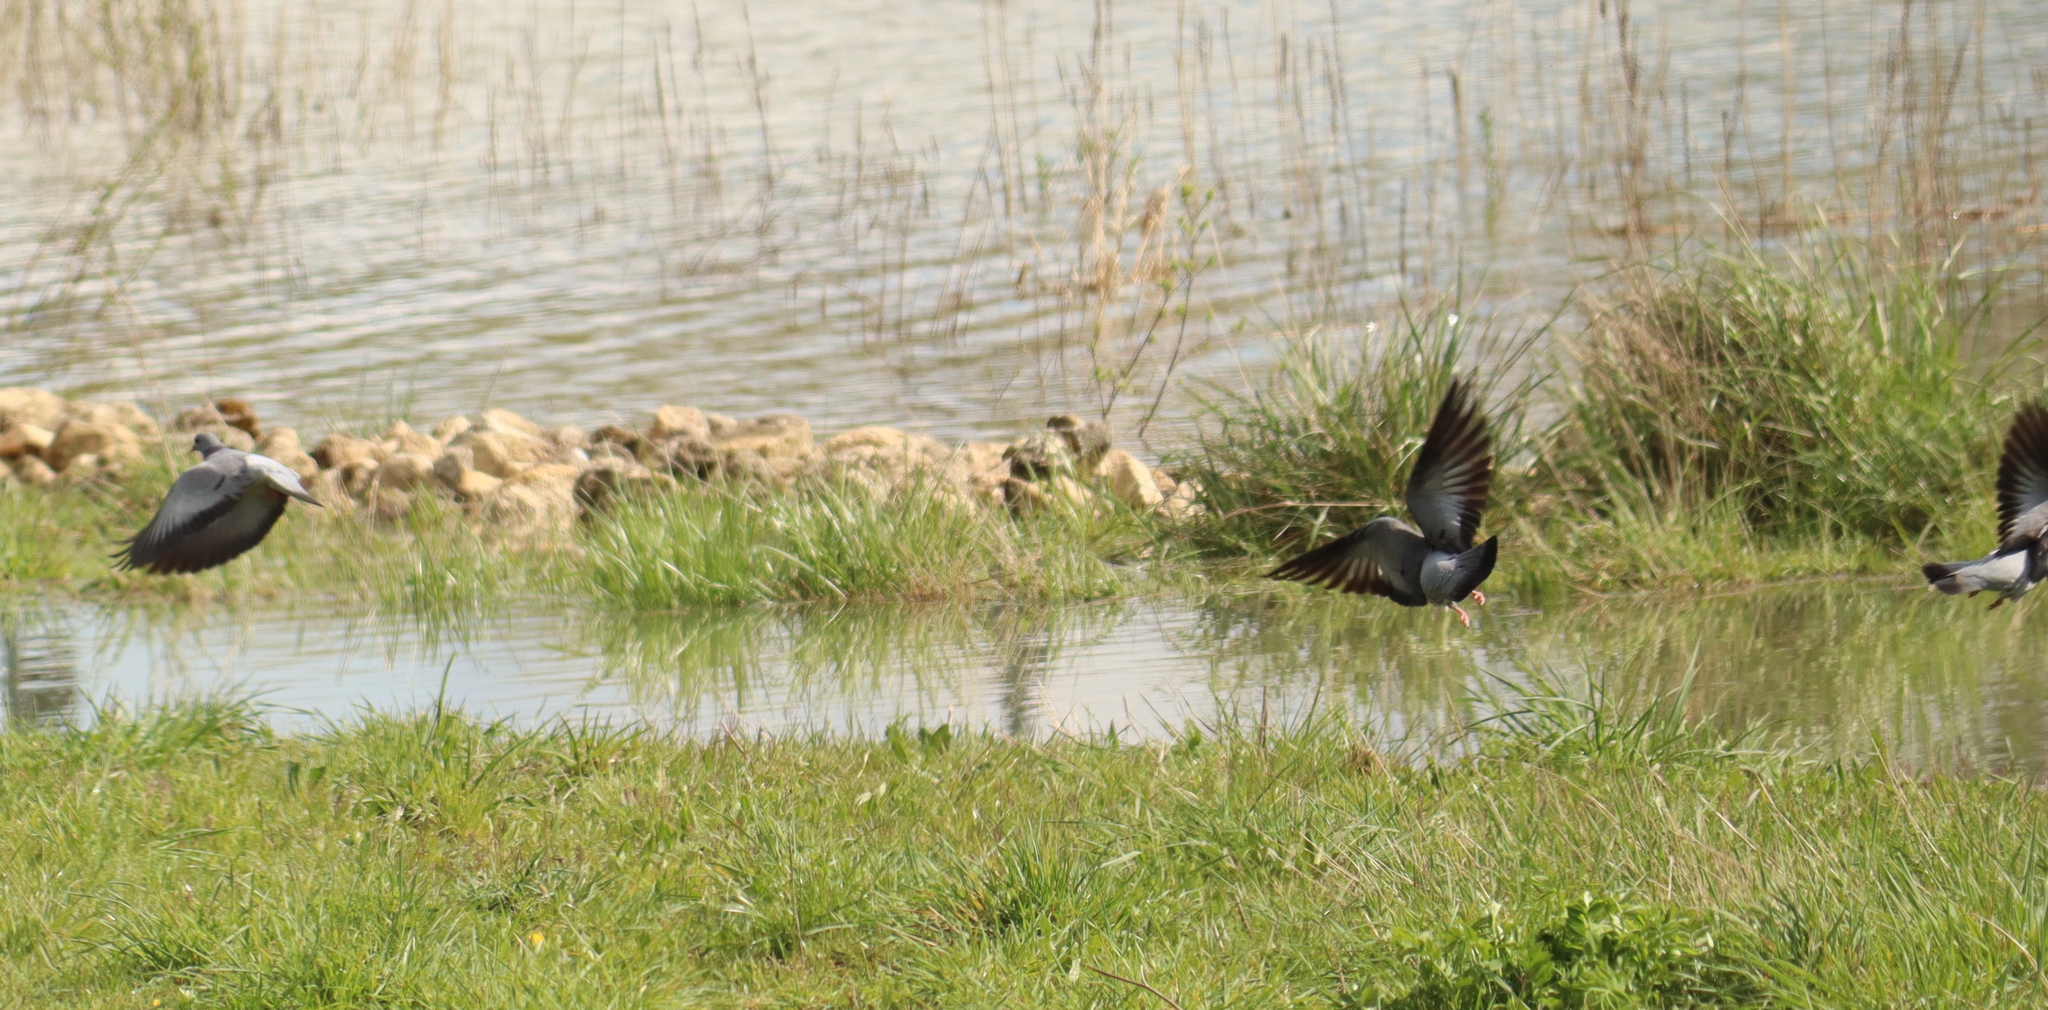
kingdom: Animalia
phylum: Chordata
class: Aves
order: Columbiformes
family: Columbidae
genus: Columba
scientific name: Columba oenas
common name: Stock dove
